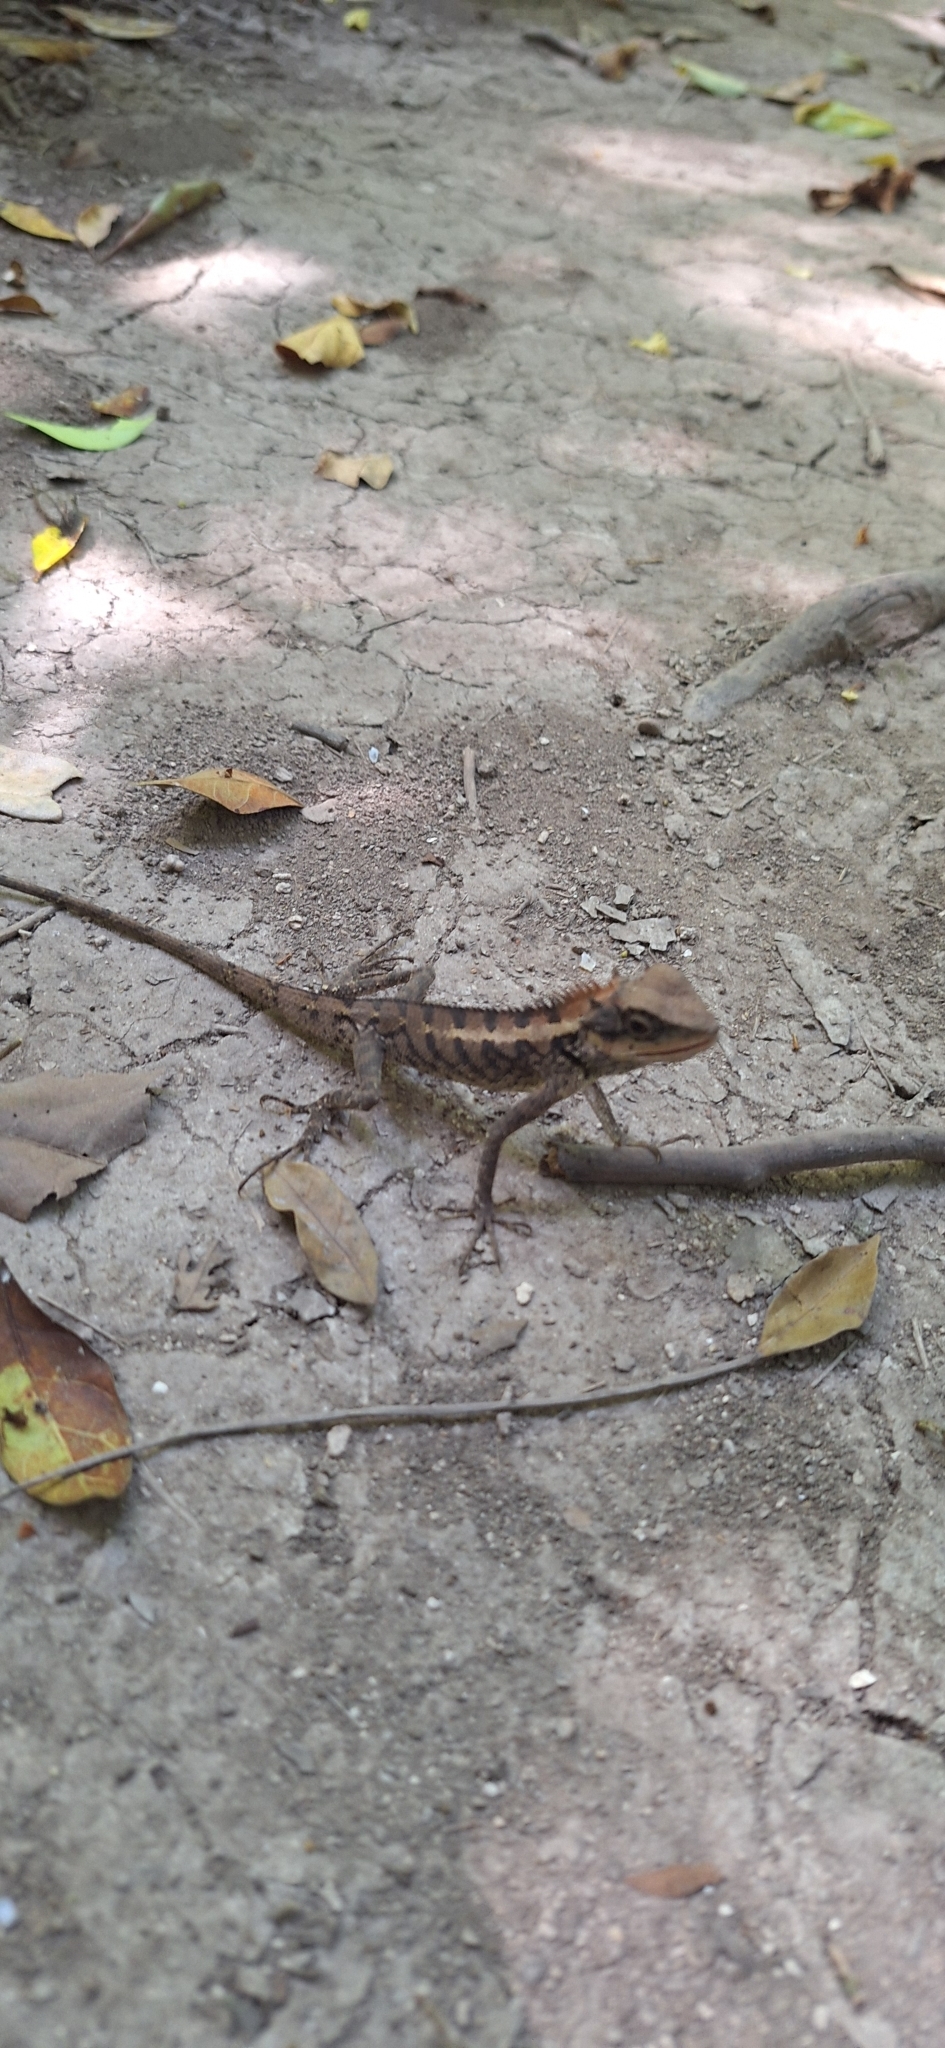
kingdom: Animalia
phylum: Chordata
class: Squamata
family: Agamidae
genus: Calotes
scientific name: Calotes emma
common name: Thailand bloodsucker
